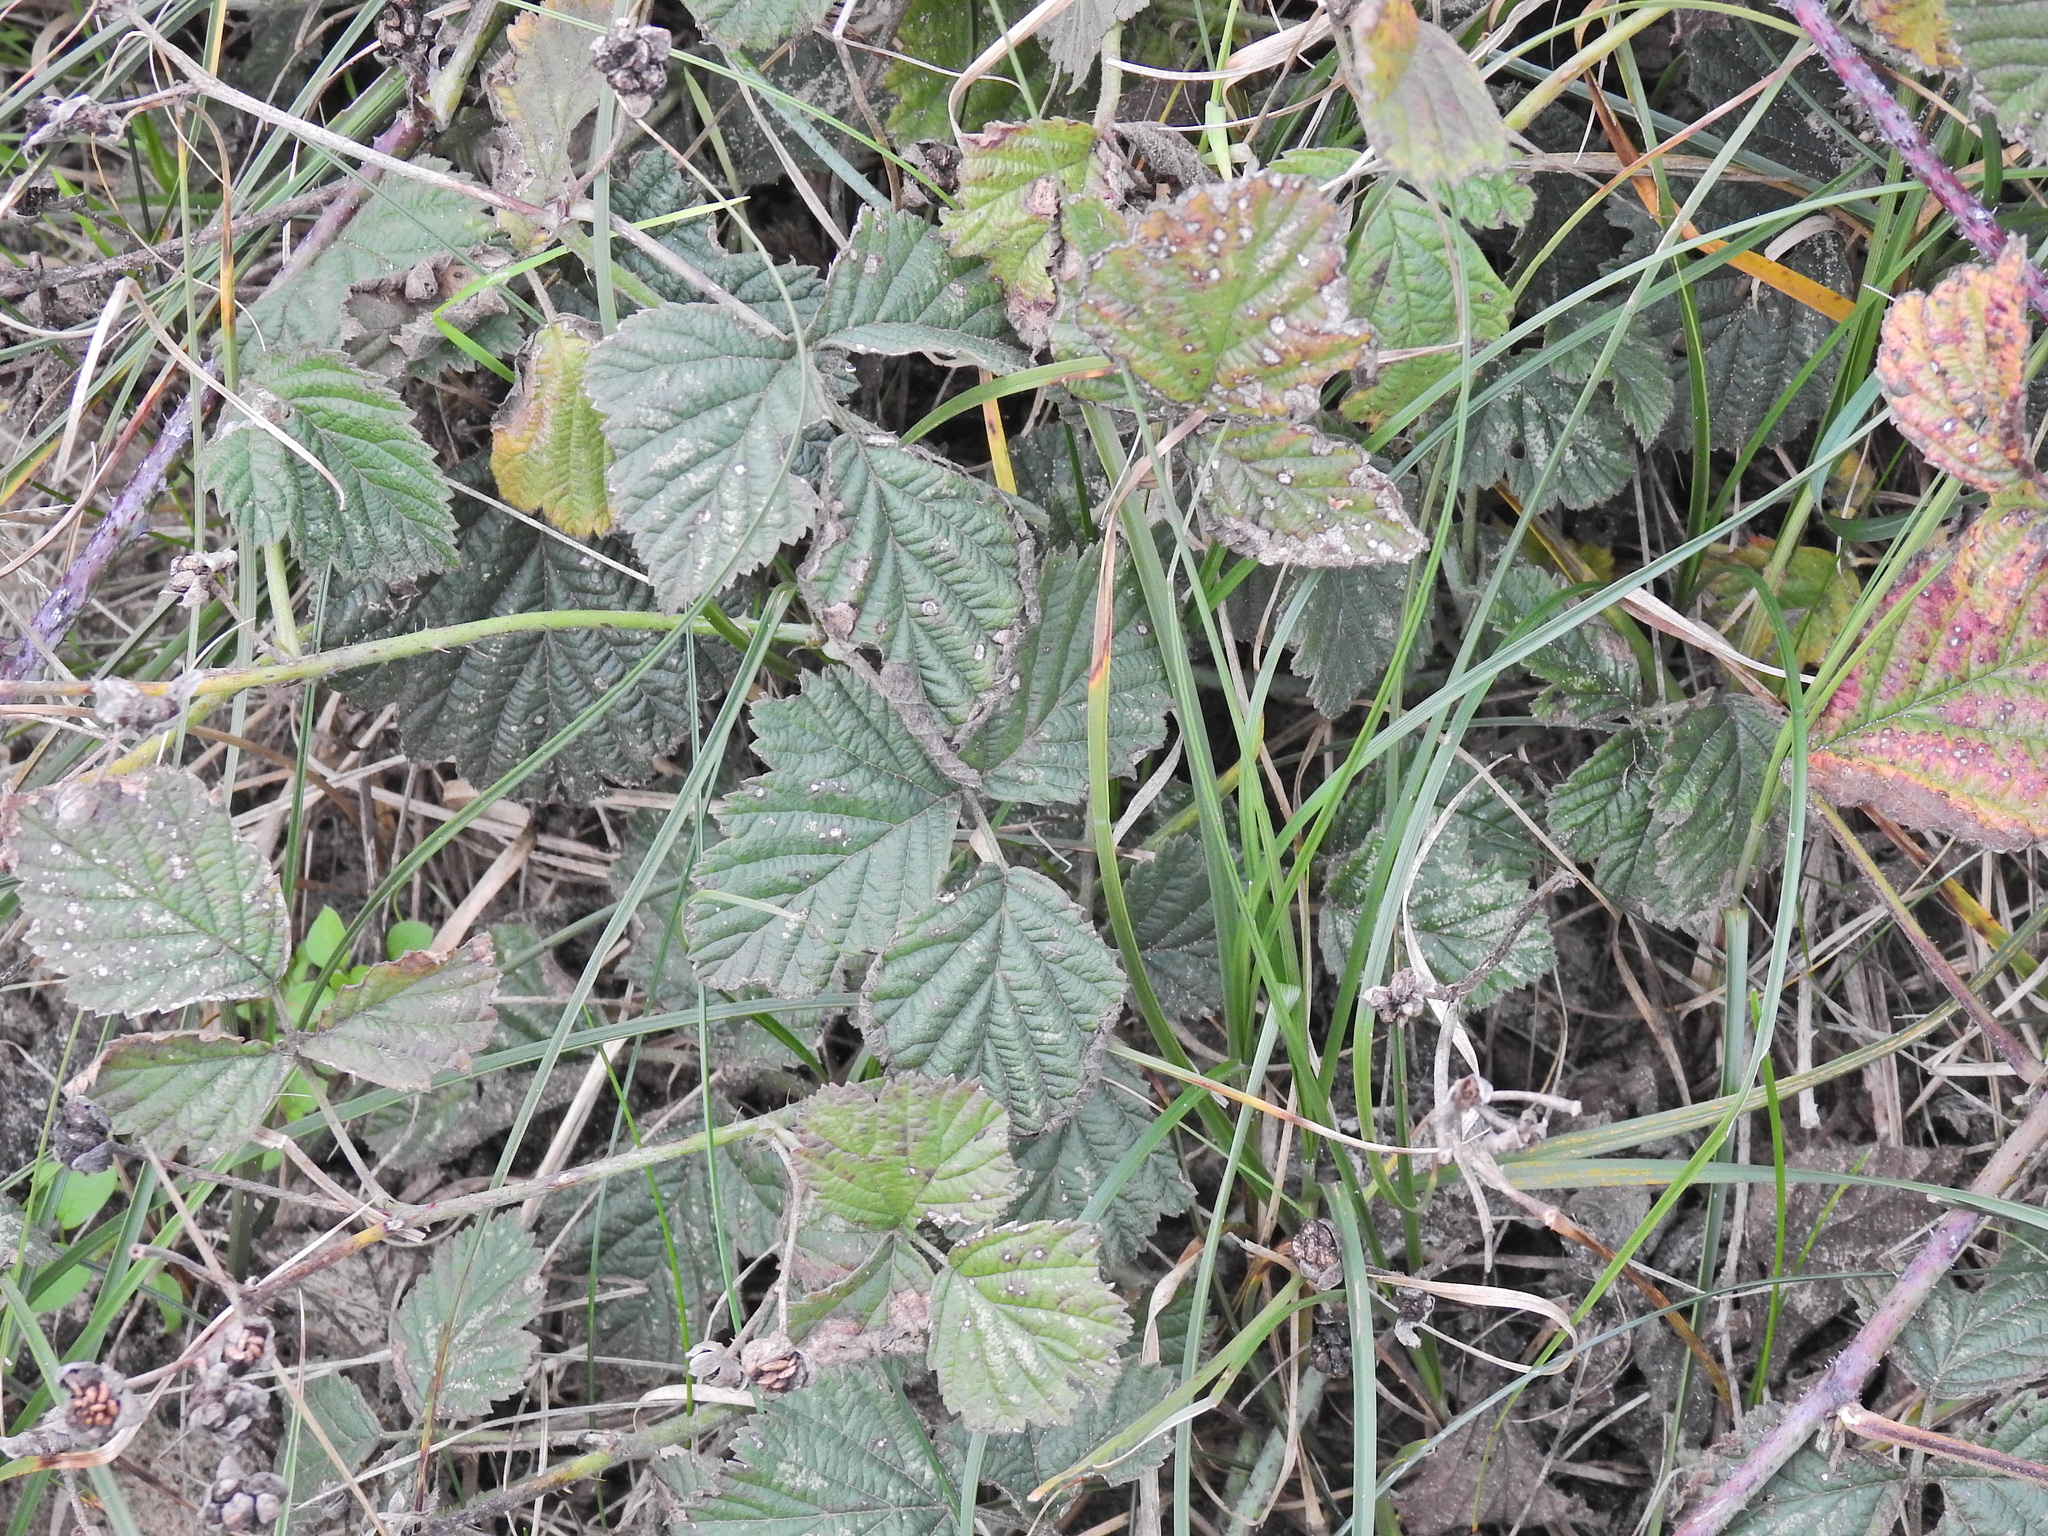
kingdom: Plantae
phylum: Tracheophyta
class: Magnoliopsida
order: Rosales
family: Rosaceae
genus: Rubus
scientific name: Rubus caesius
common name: Dewberry
